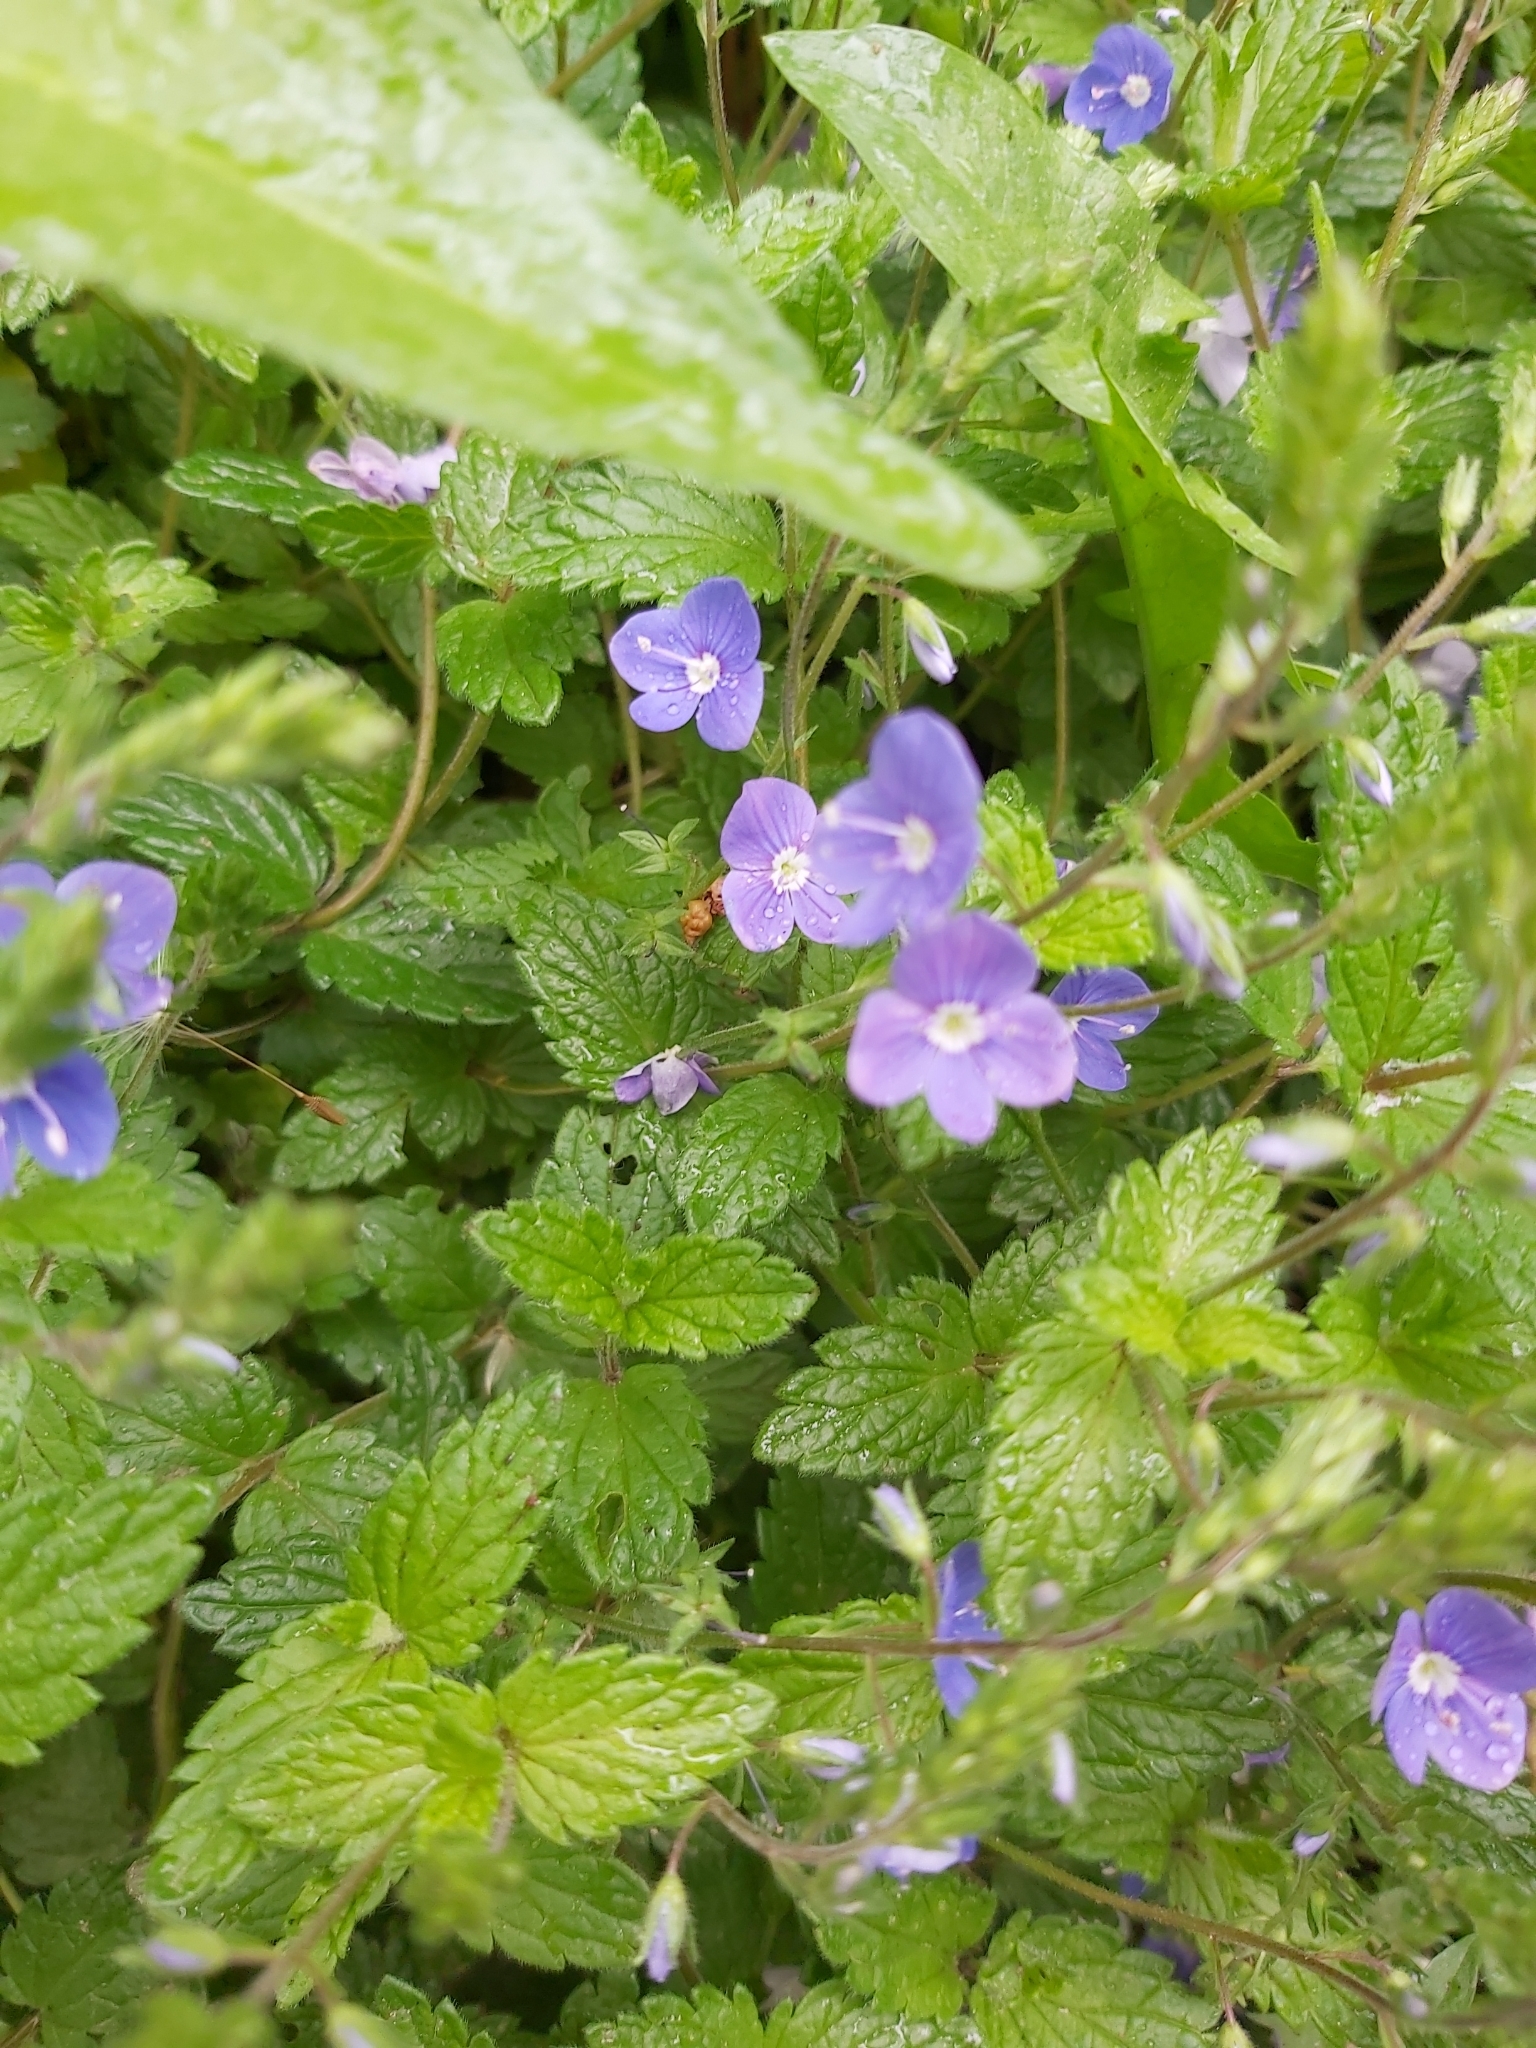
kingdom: Plantae
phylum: Tracheophyta
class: Magnoliopsida
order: Lamiales
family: Plantaginaceae
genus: Veronica
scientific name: Veronica chamaedrys
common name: Germander speedwell
